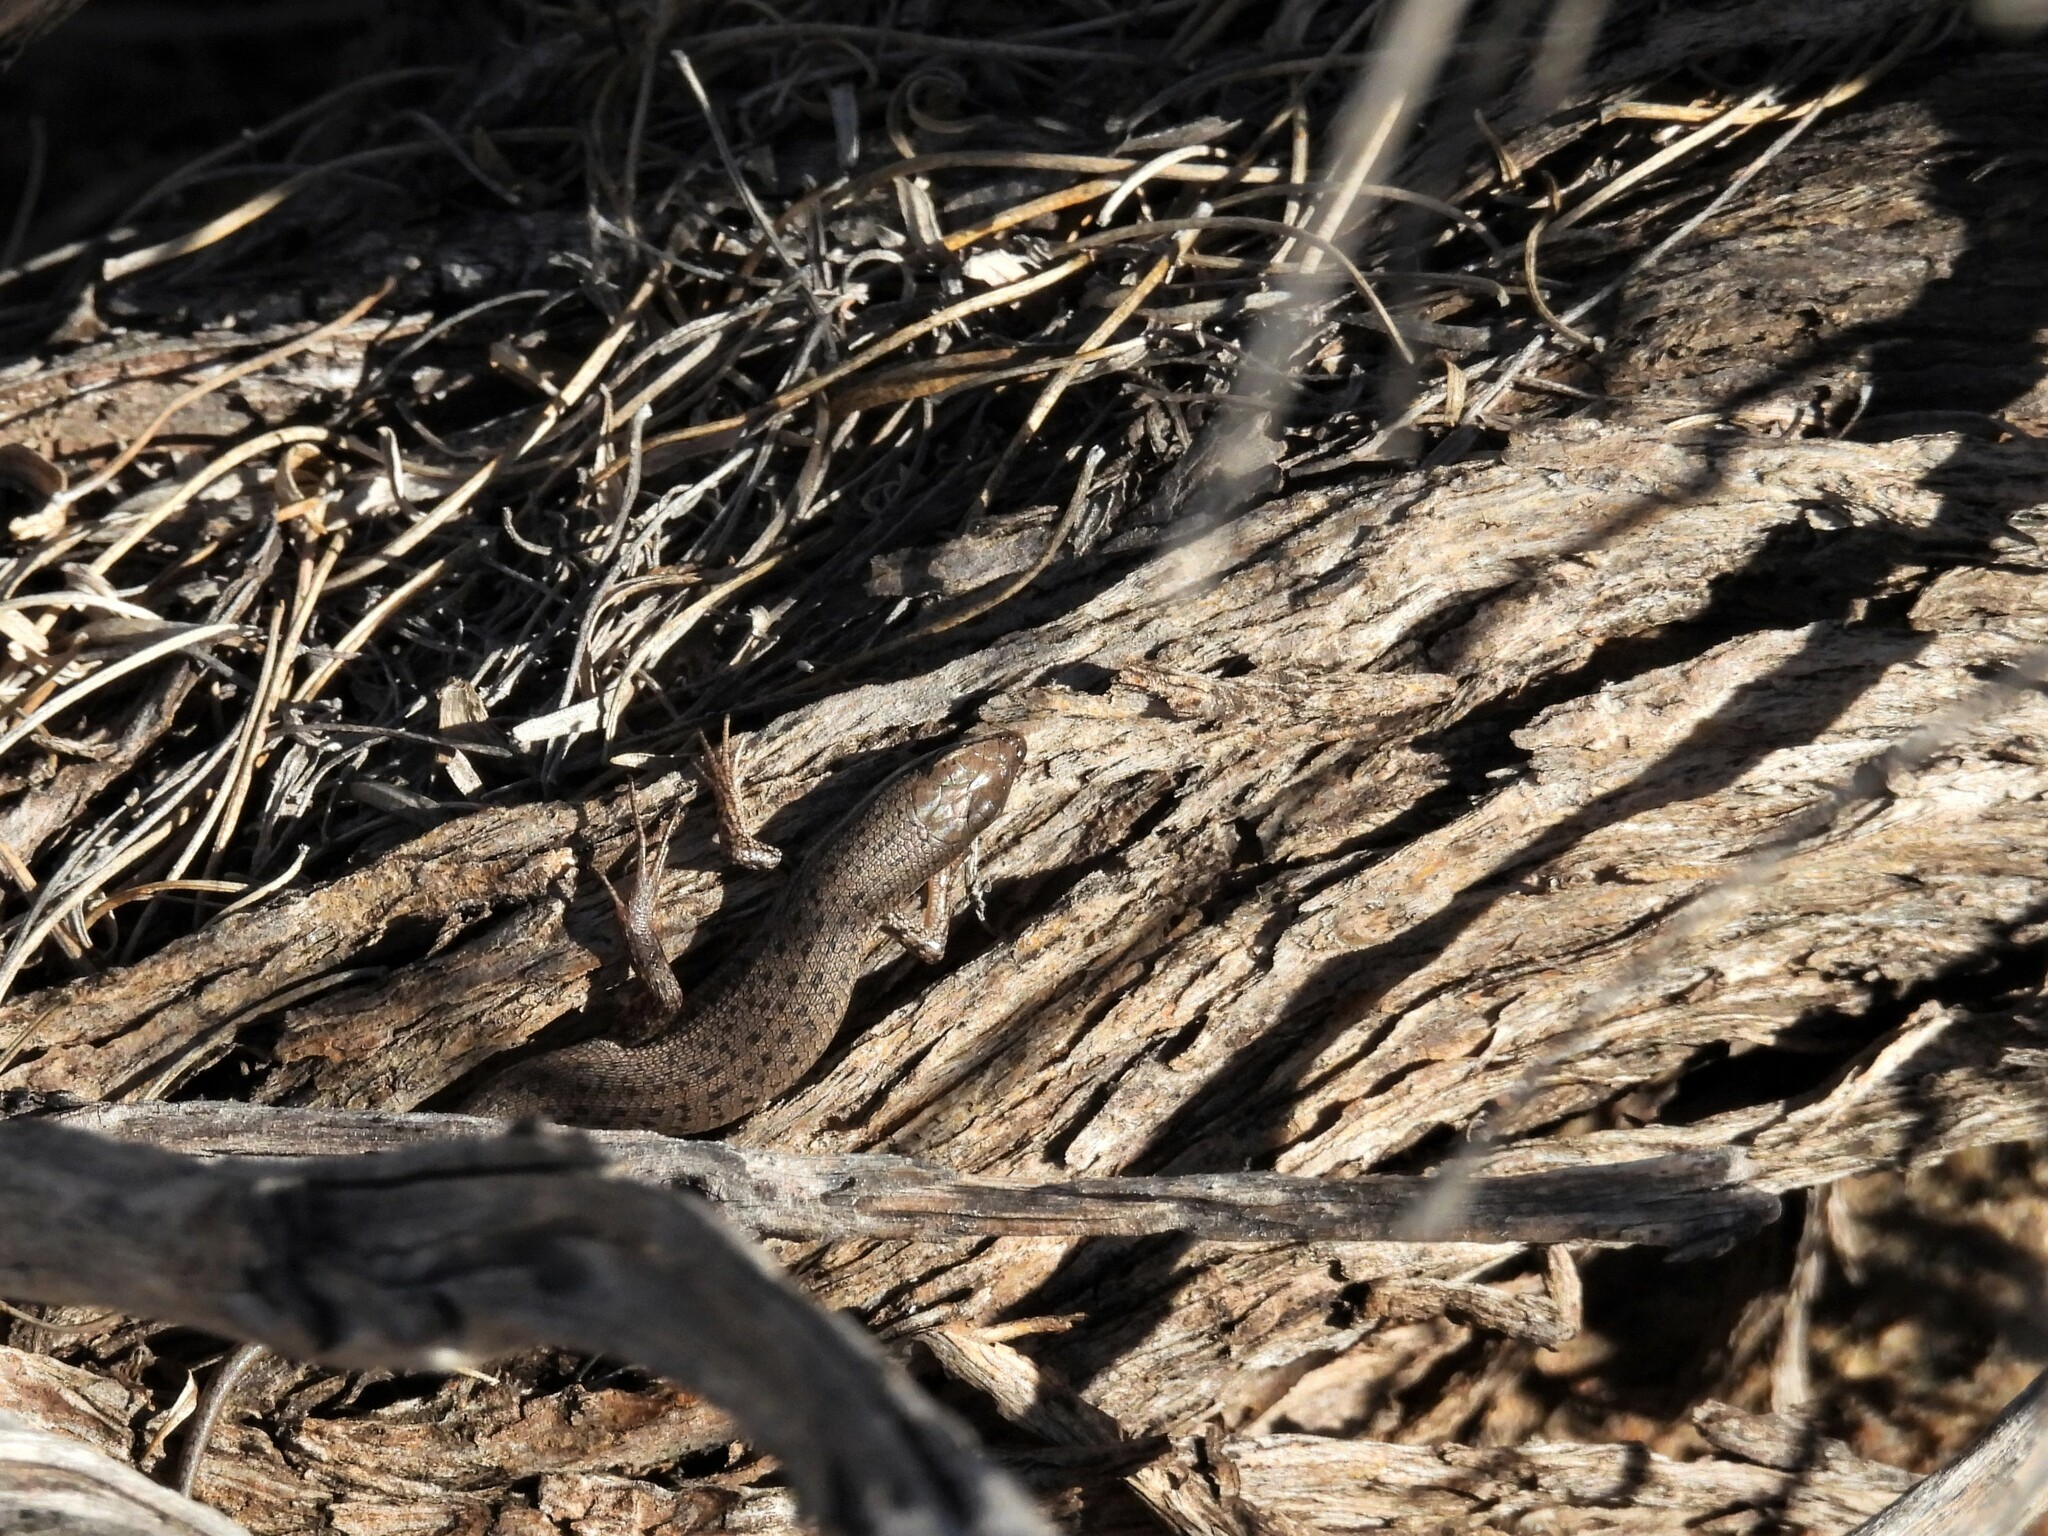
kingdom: Animalia
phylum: Chordata
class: Squamata
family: Scincidae
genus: Trachylepis
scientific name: Trachylepis variegata
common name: Variegated skink
